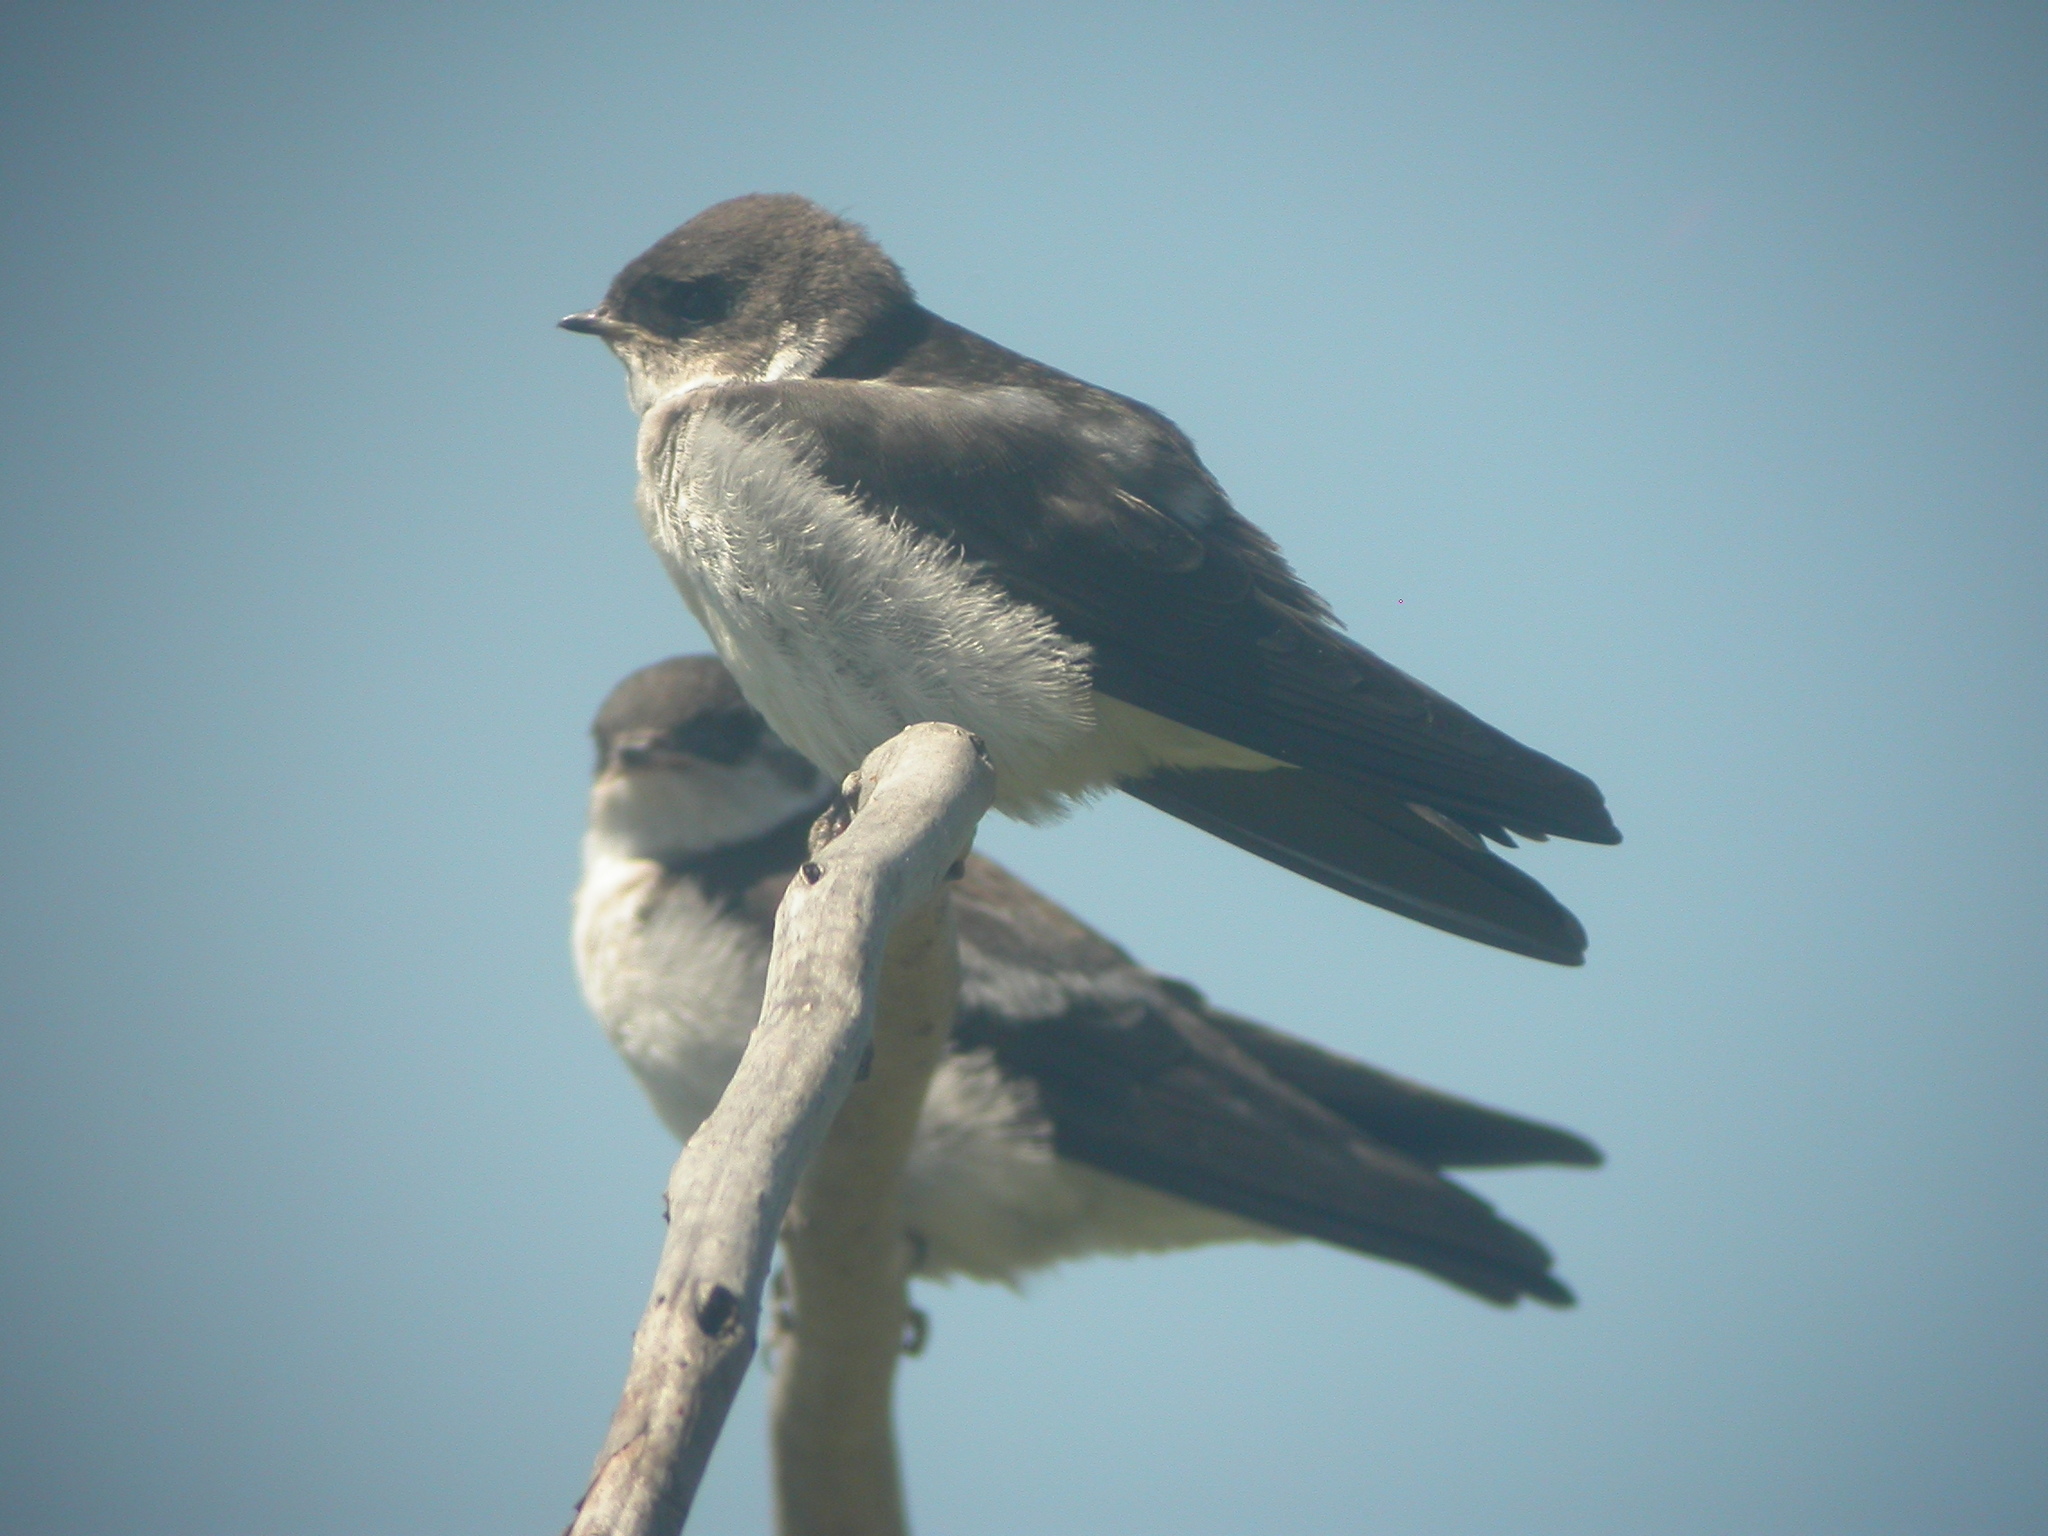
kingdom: Animalia
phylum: Chordata
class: Aves
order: Passeriformes
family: Hirundinidae
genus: Tachycineta
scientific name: Tachycineta bicolor
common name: Tree swallow
